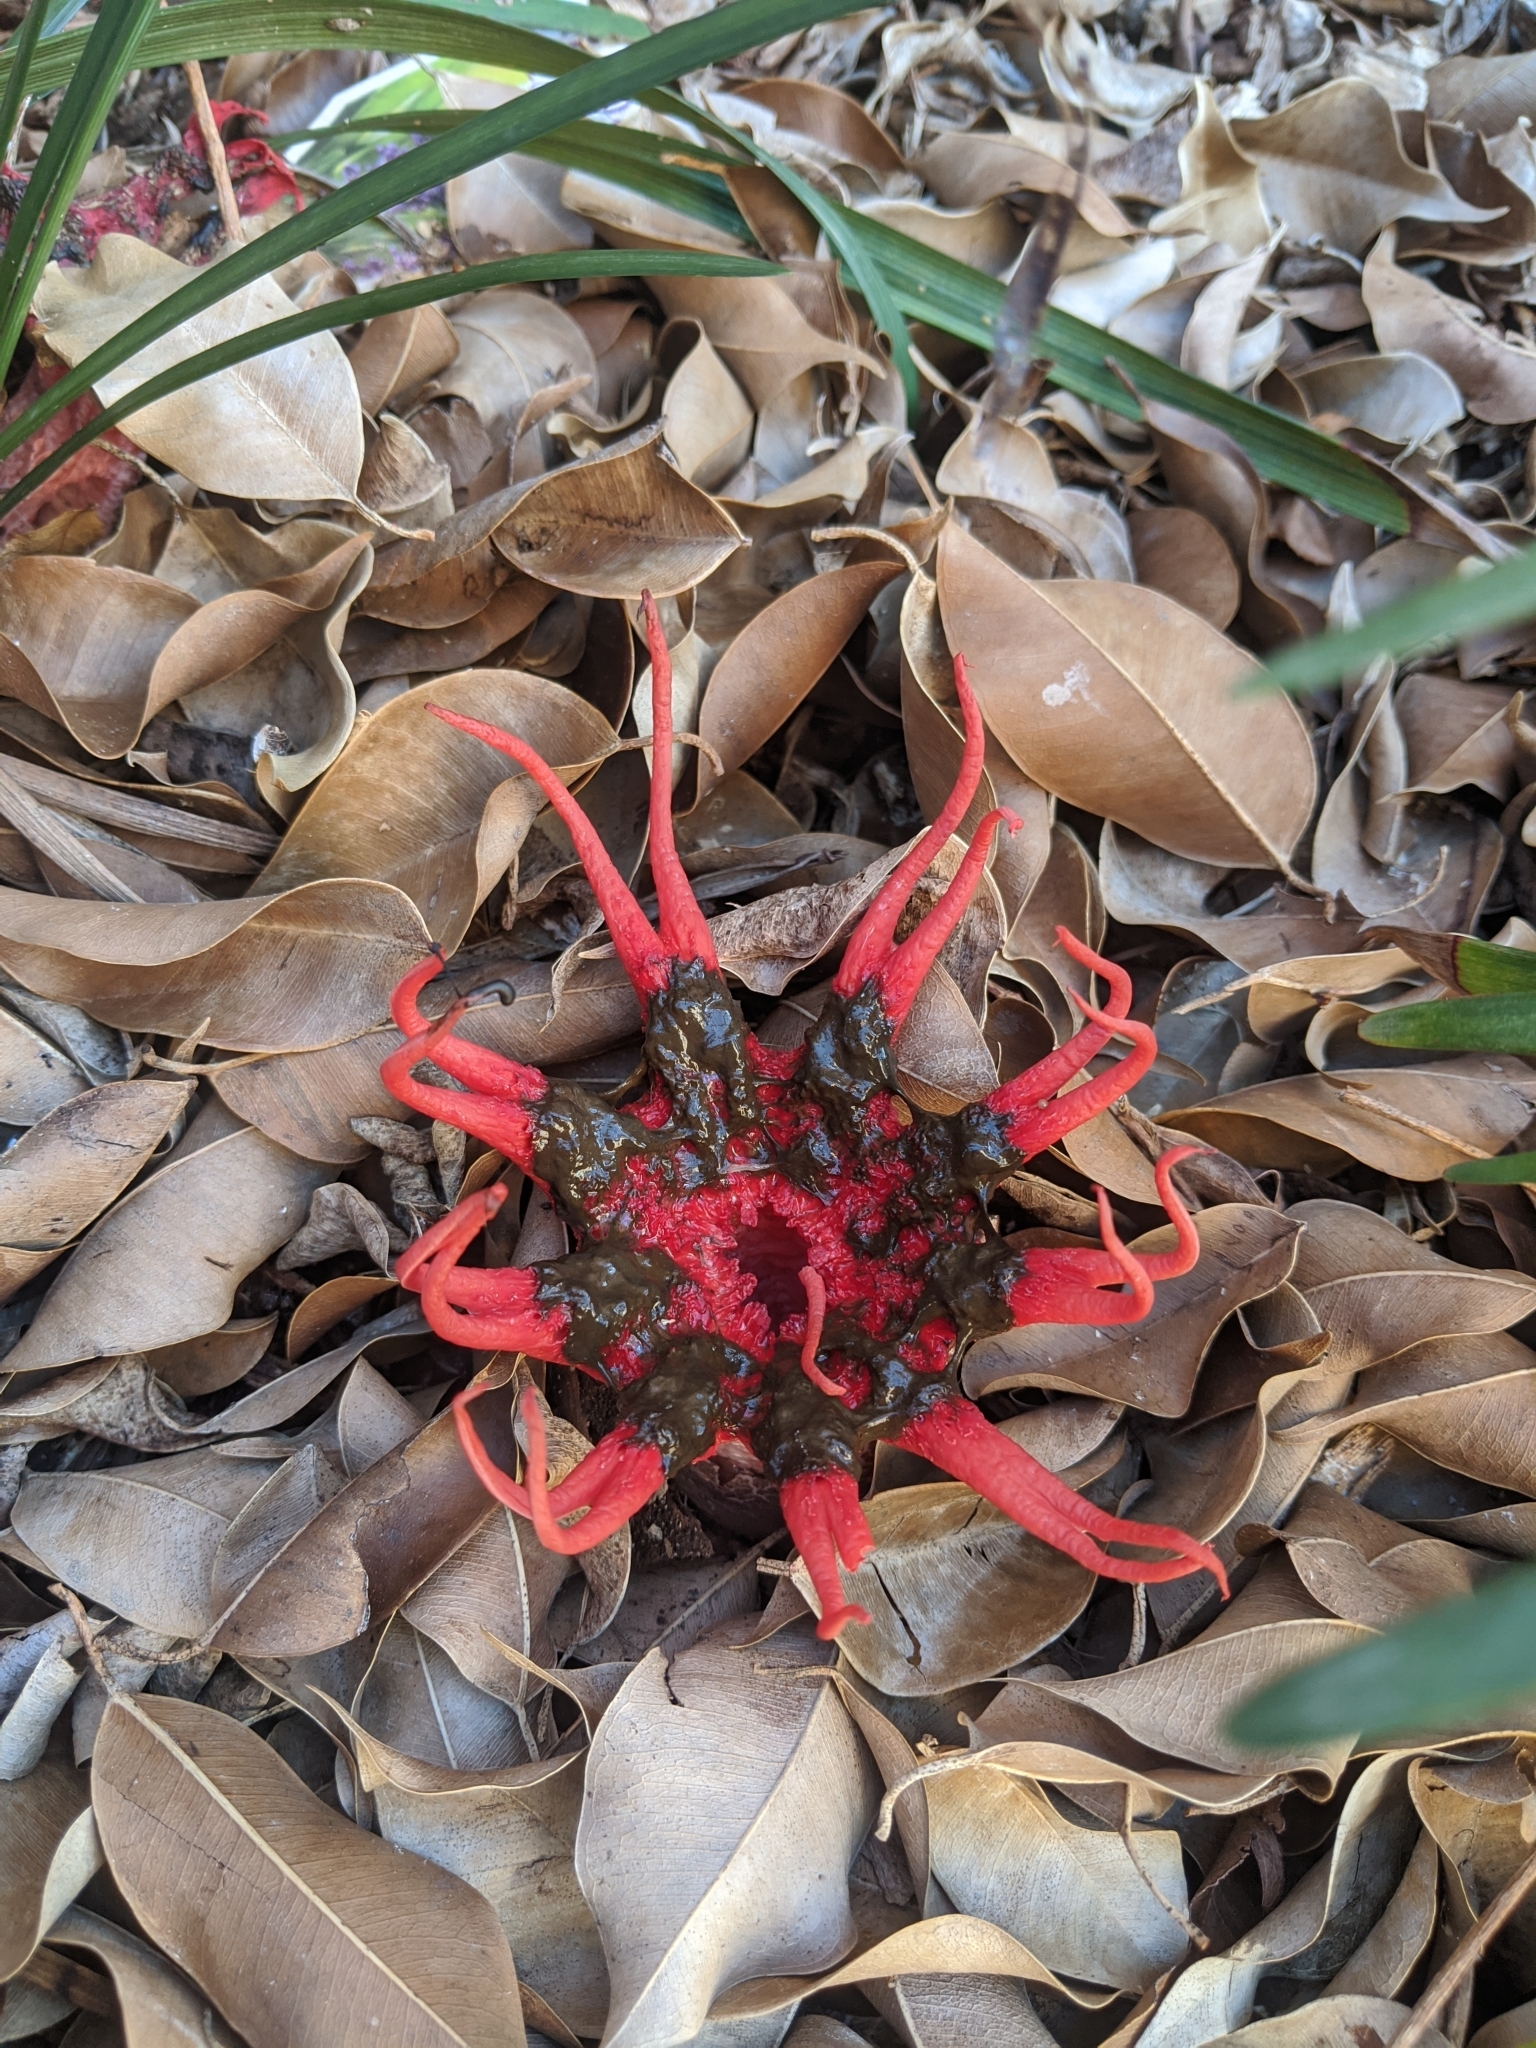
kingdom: Fungi
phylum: Basidiomycota
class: Agaricomycetes
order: Phallales
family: Phallaceae
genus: Aseroe
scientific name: Aseroe rubra
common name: Starfish fungus
